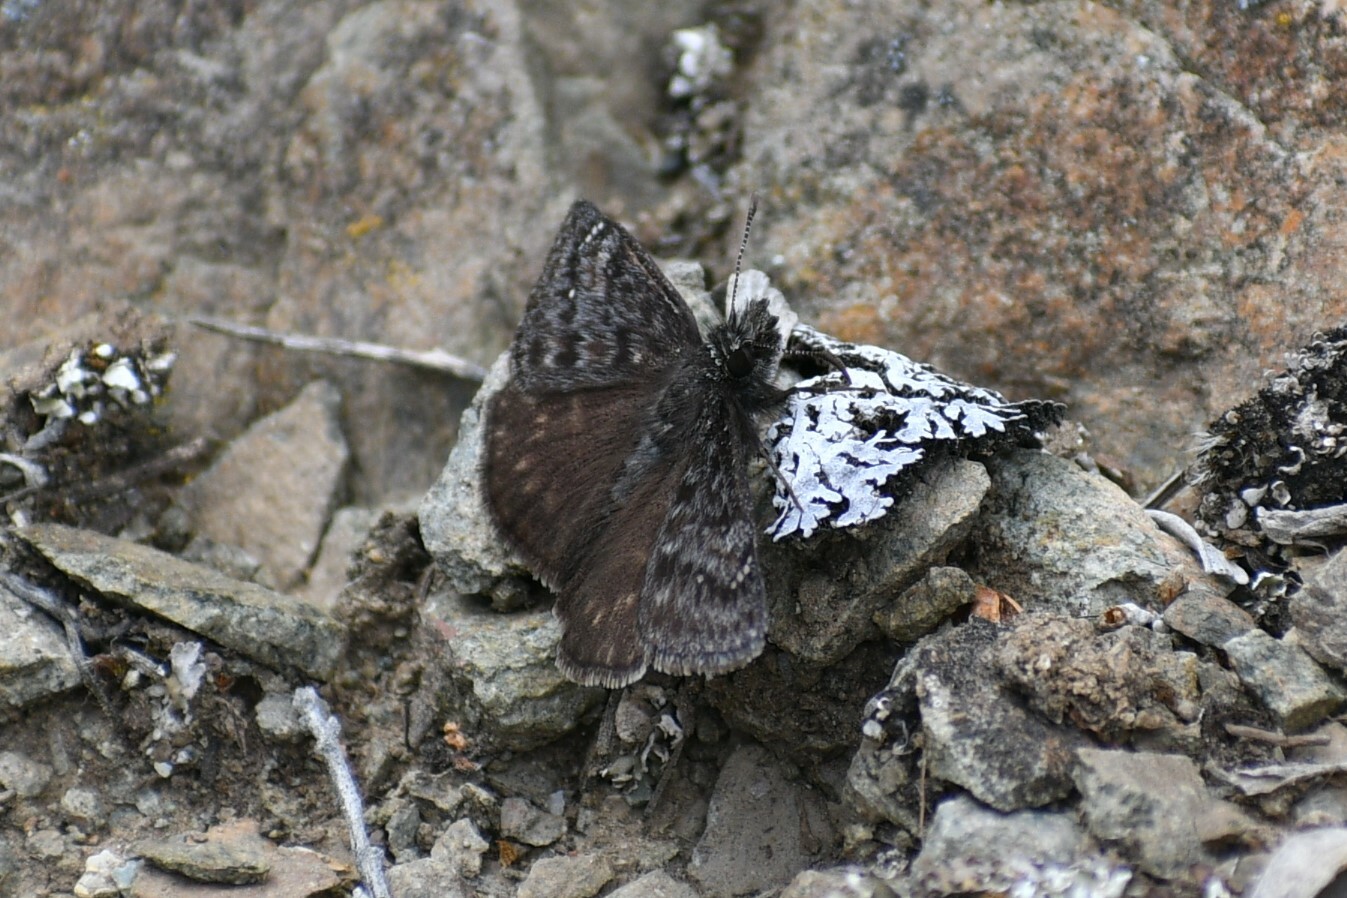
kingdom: Animalia
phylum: Arthropoda
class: Insecta
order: Lepidoptera
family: Hesperiidae
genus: Erynnis
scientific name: Erynnis persius
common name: Persius duskywing
